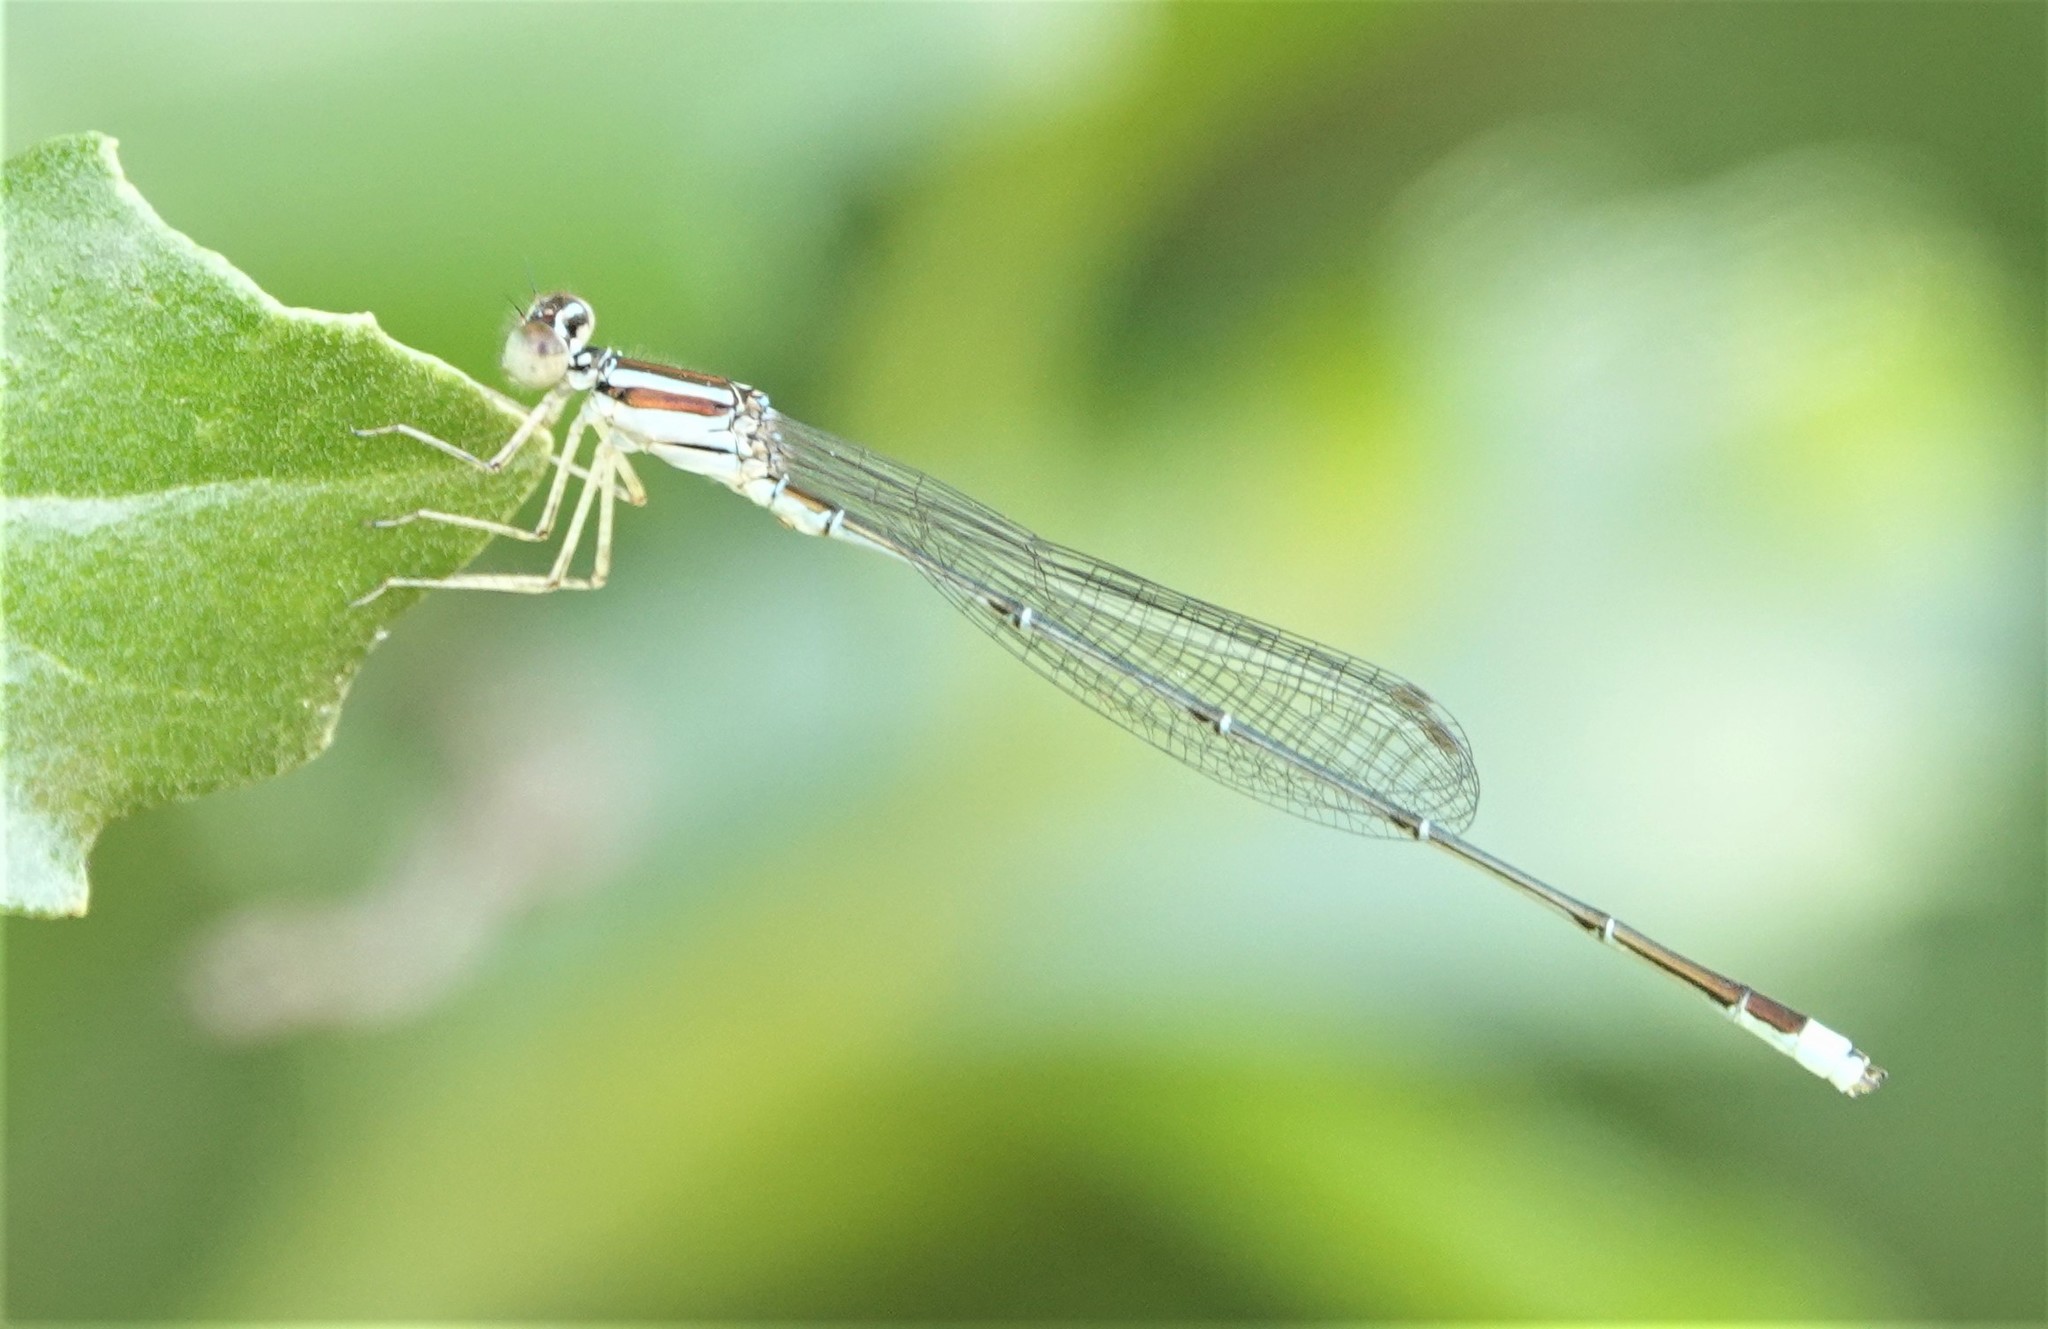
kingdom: Animalia
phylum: Arthropoda
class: Insecta
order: Odonata
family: Coenagrionidae
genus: Enallagma
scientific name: Enallagma pollutum
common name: Florida bluet
